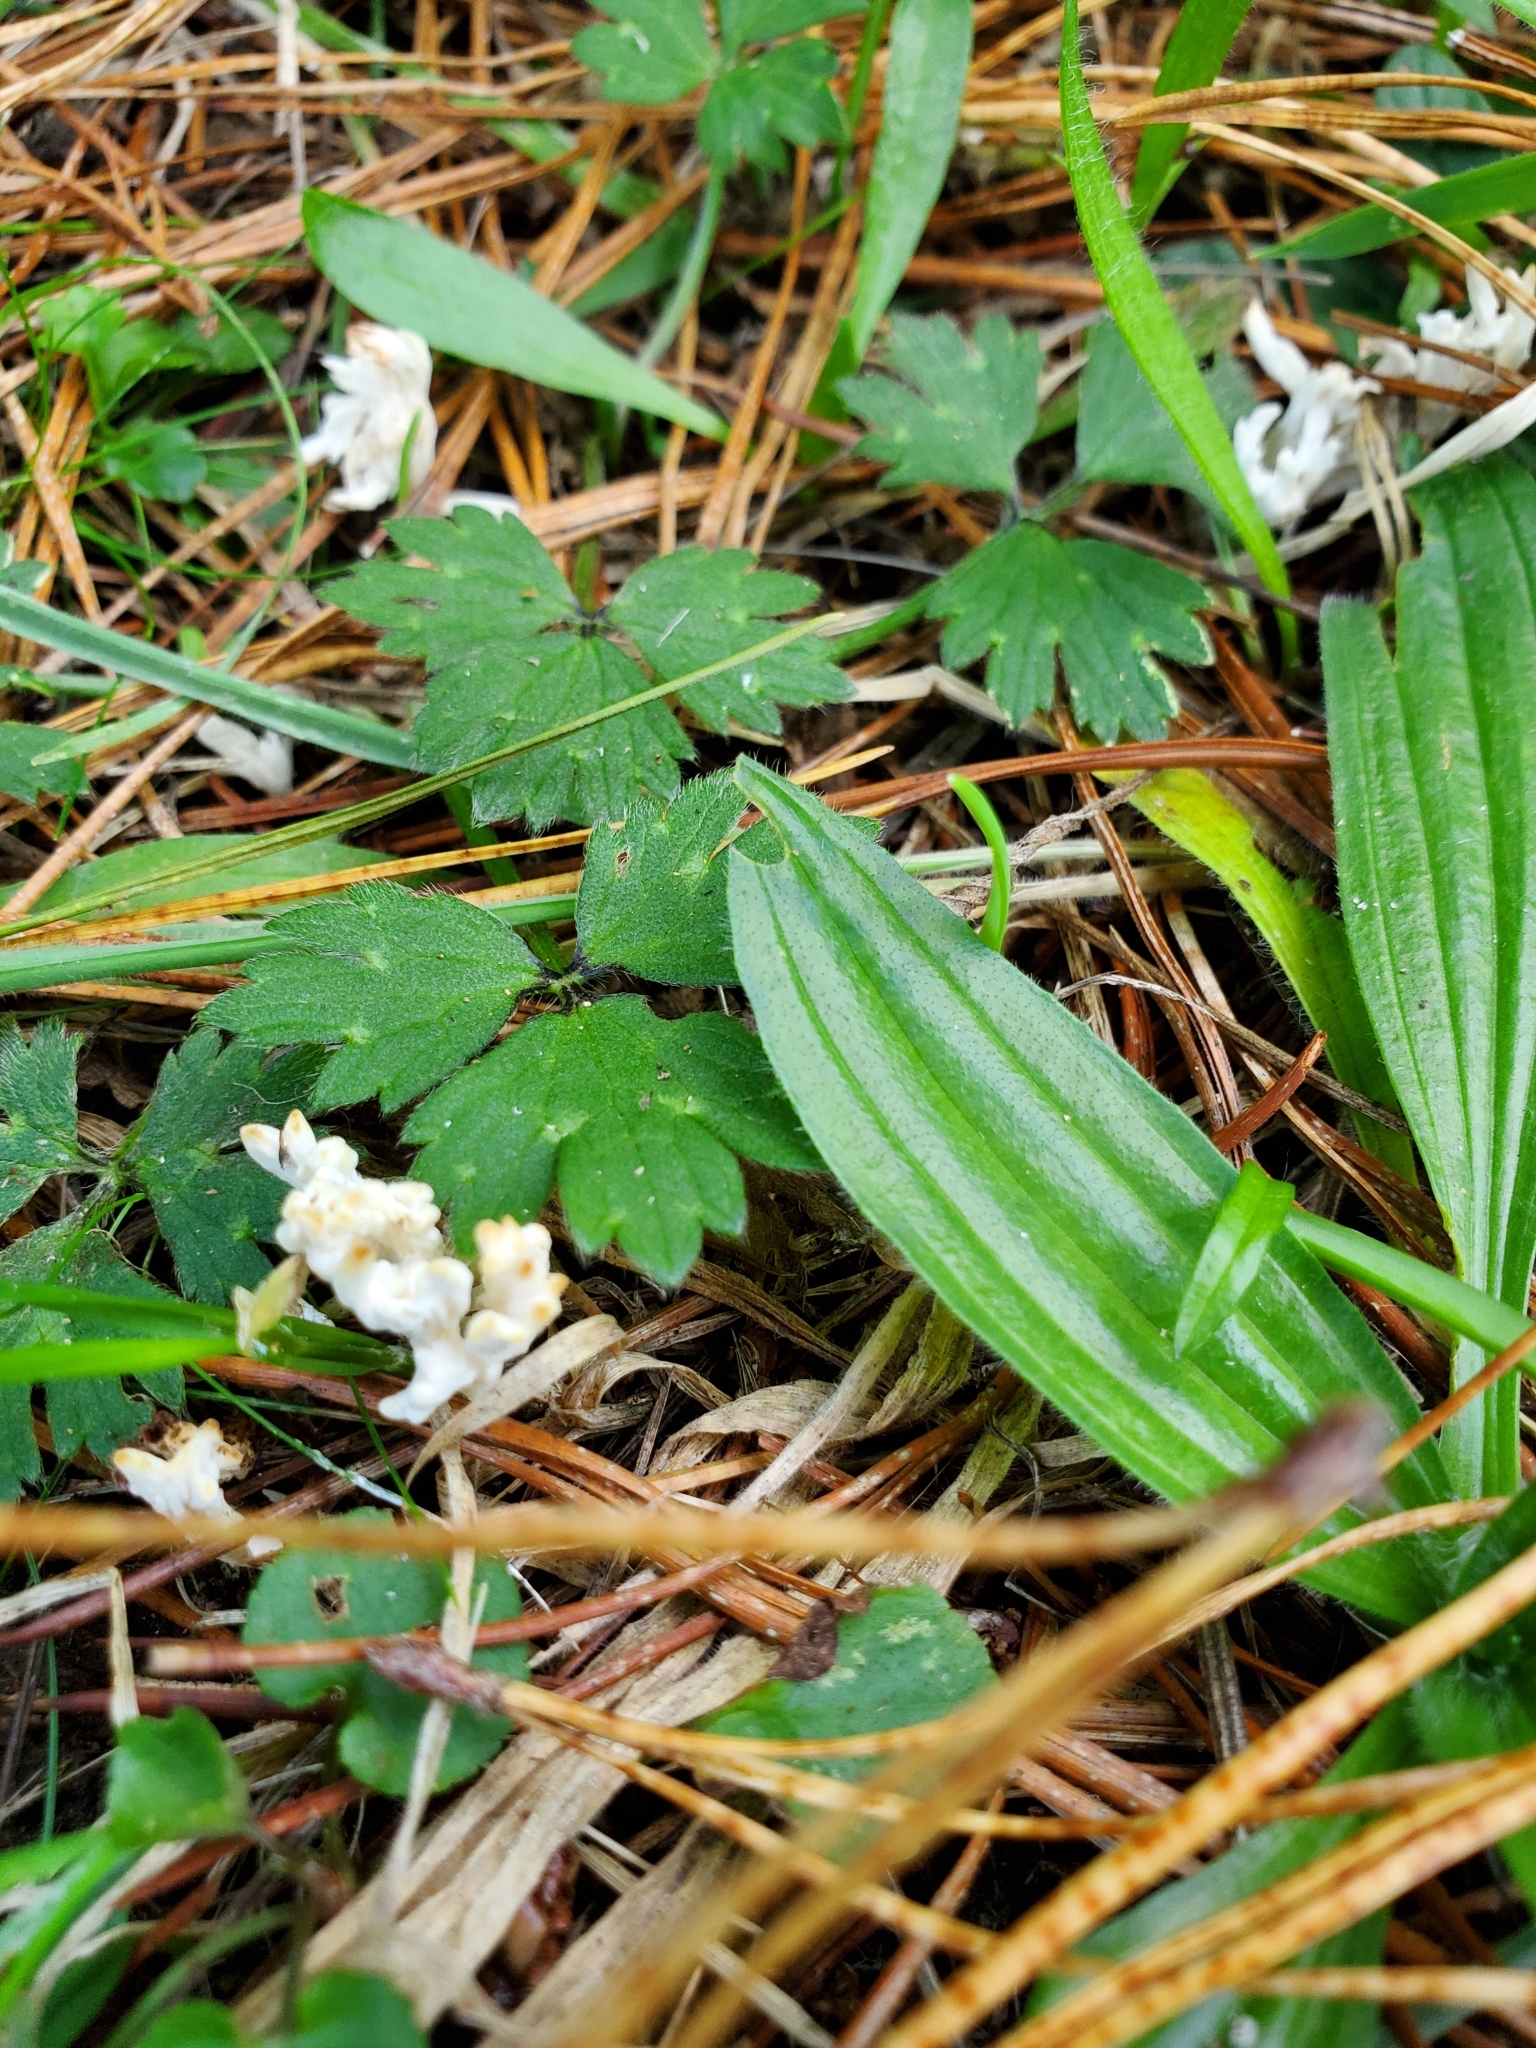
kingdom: Fungi
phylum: Basidiomycota
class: Agaricomycetes
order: Cantharellales
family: Hydnaceae
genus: Clavulina
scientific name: Clavulina rugosa
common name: Wrinkled club
